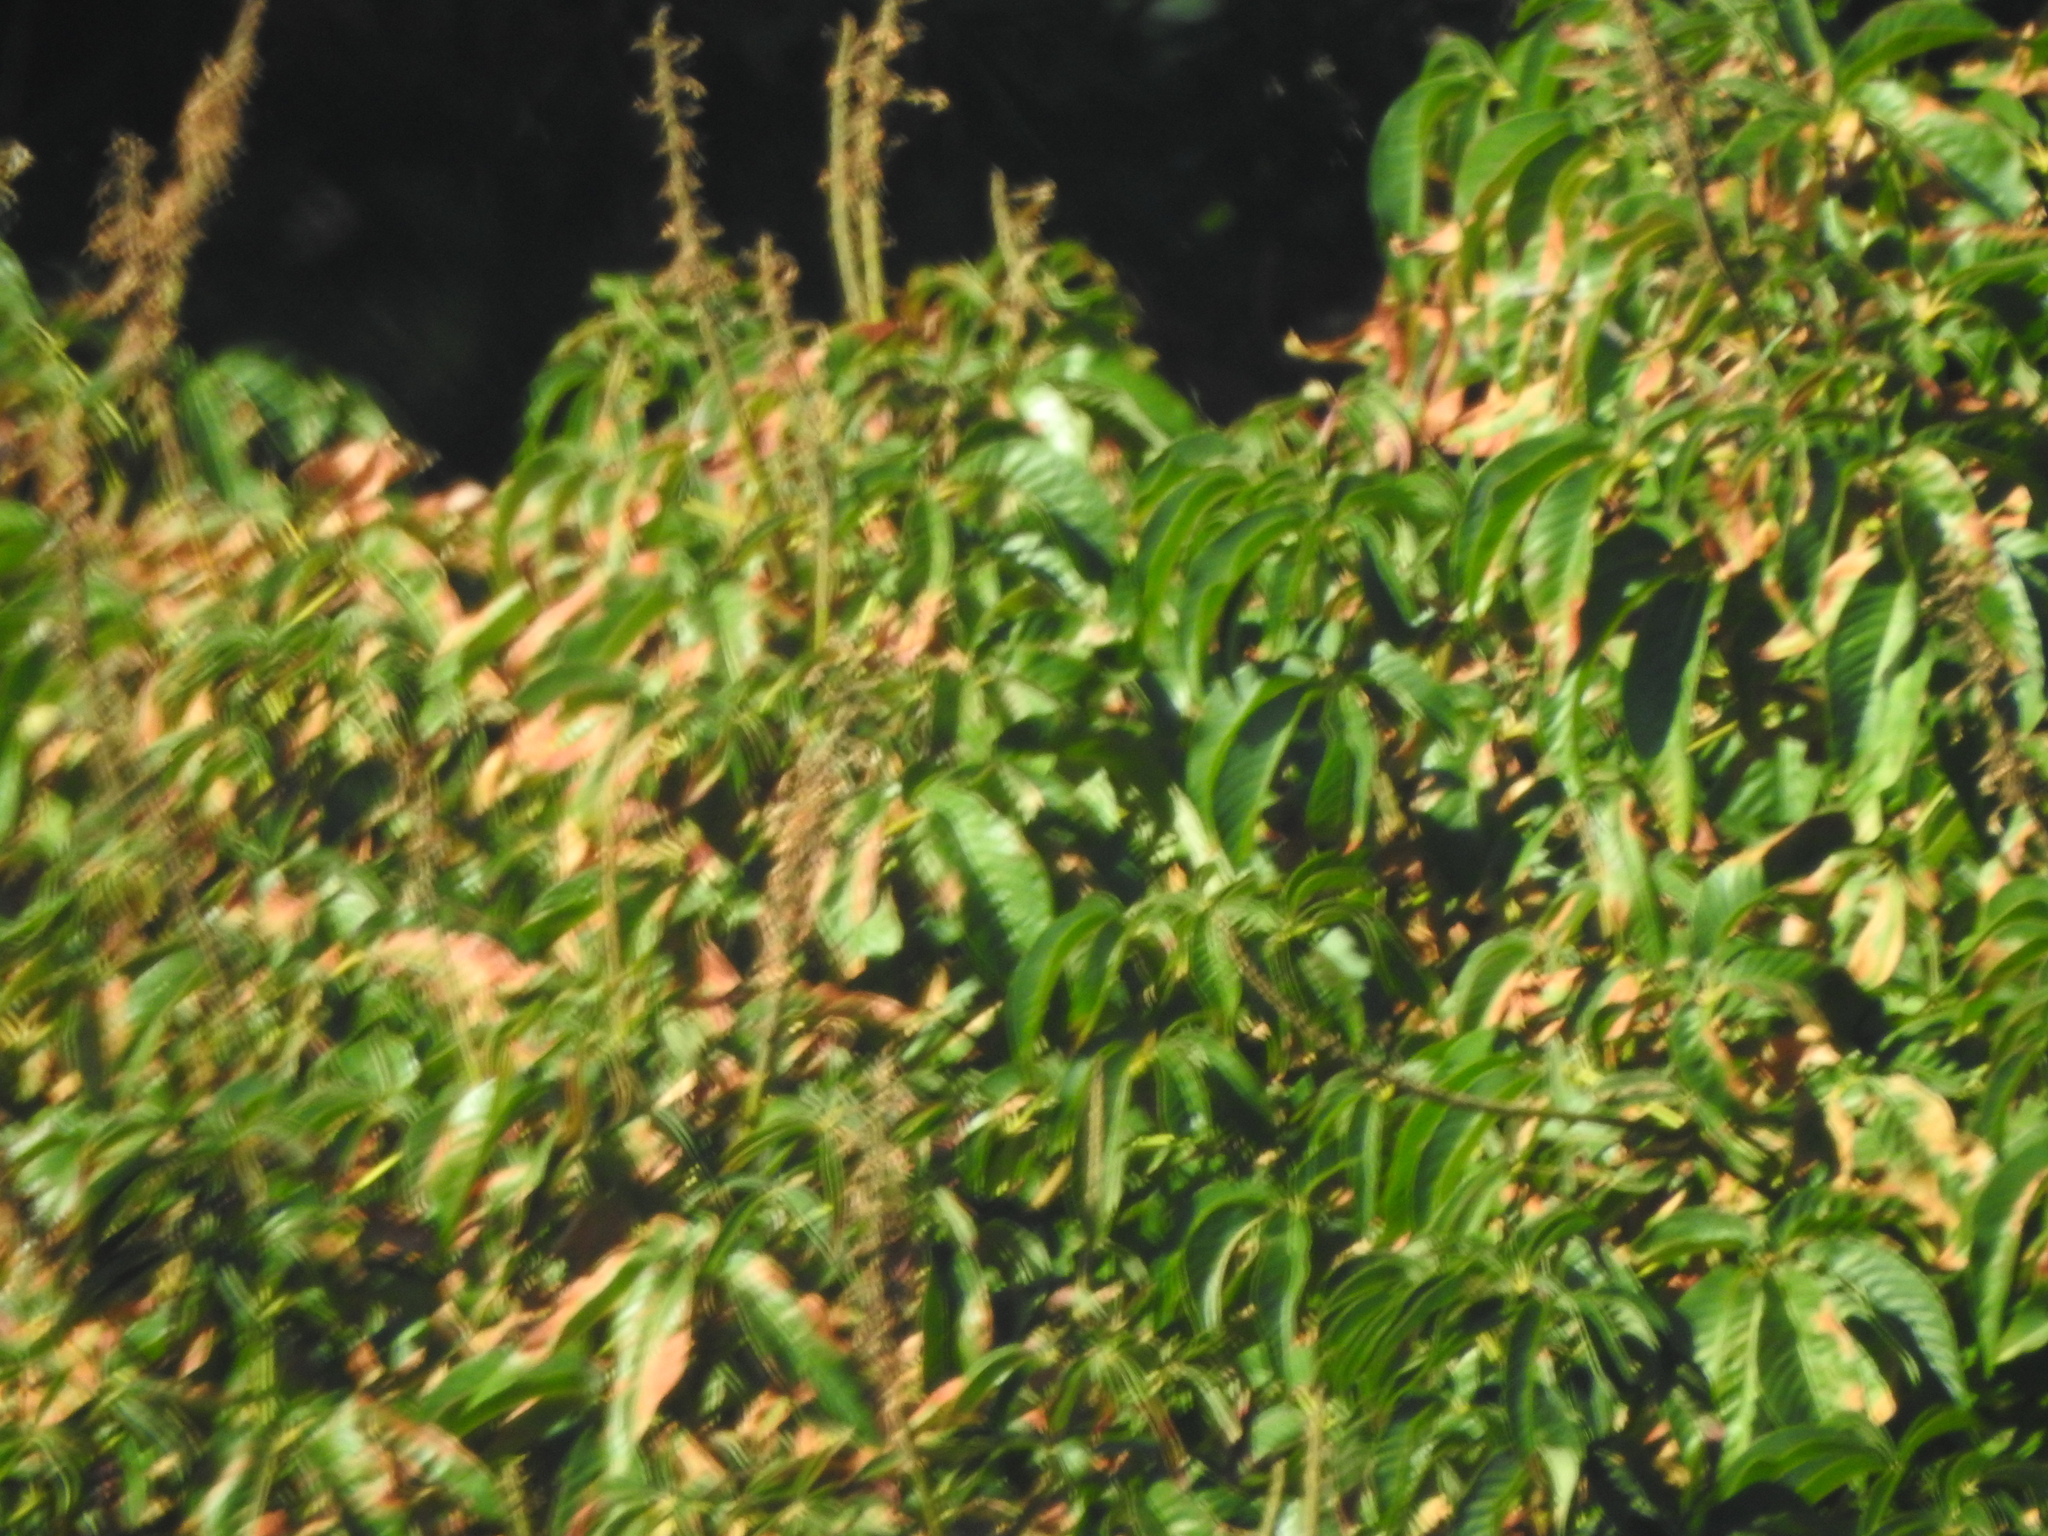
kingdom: Plantae
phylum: Tracheophyta
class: Magnoliopsida
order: Sapindales
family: Sapindaceae
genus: Aesculus
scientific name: Aesculus californica
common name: California buckeye
